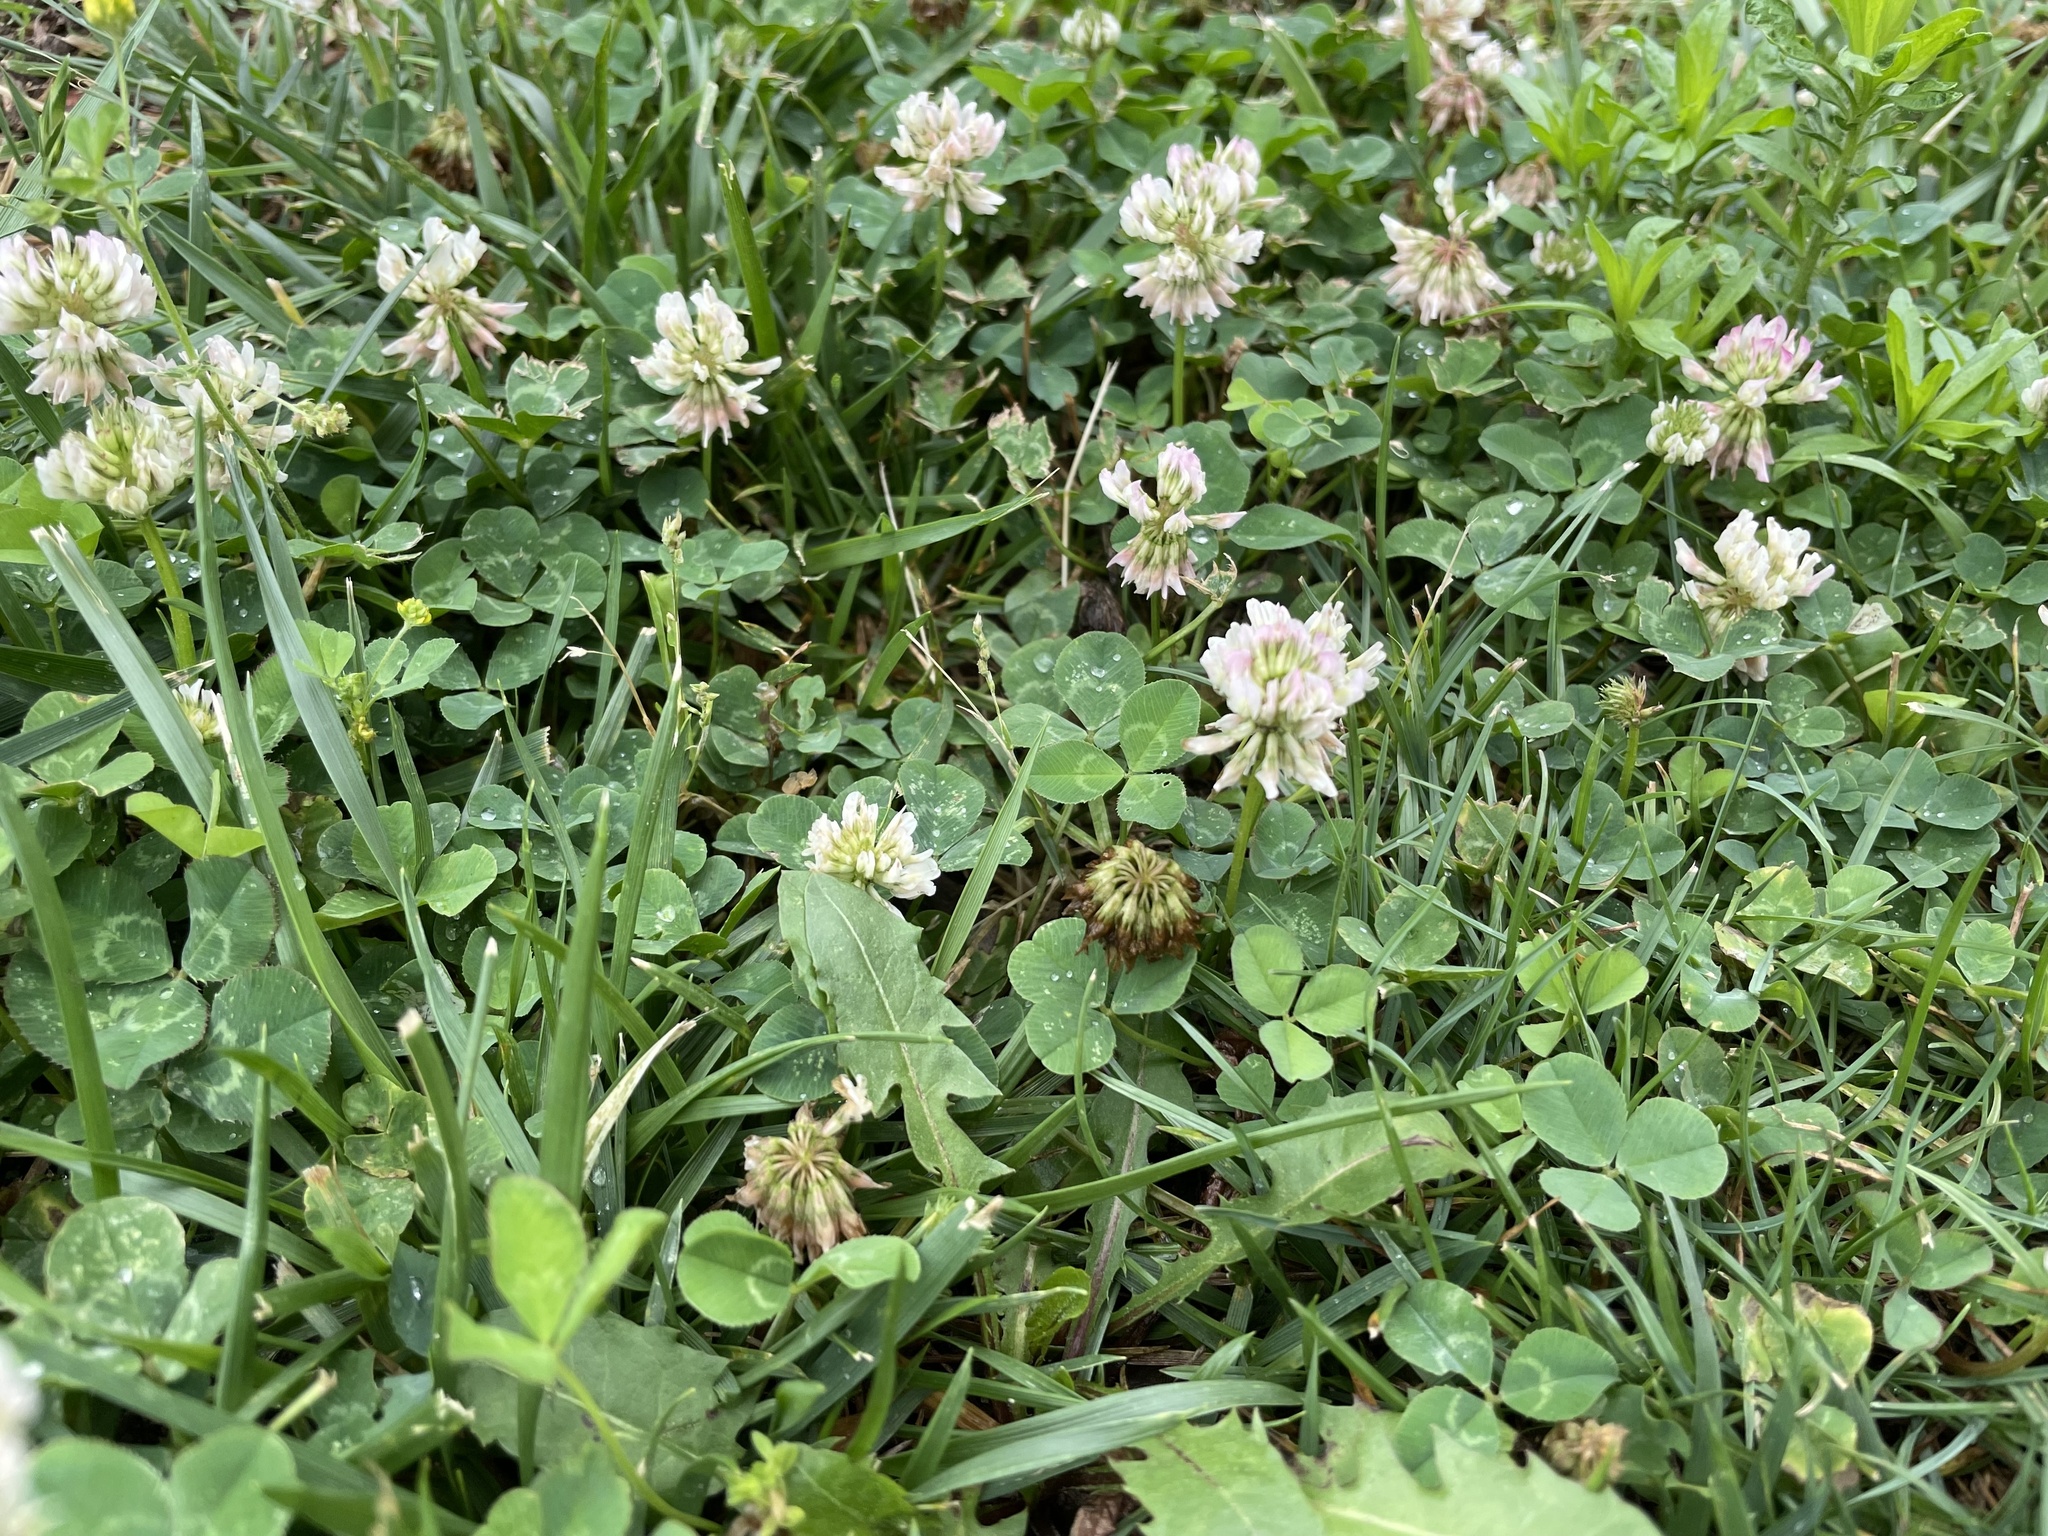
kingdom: Plantae
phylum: Tracheophyta
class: Magnoliopsida
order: Fabales
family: Fabaceae
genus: Trifolium
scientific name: Trifolium repens
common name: White clover
